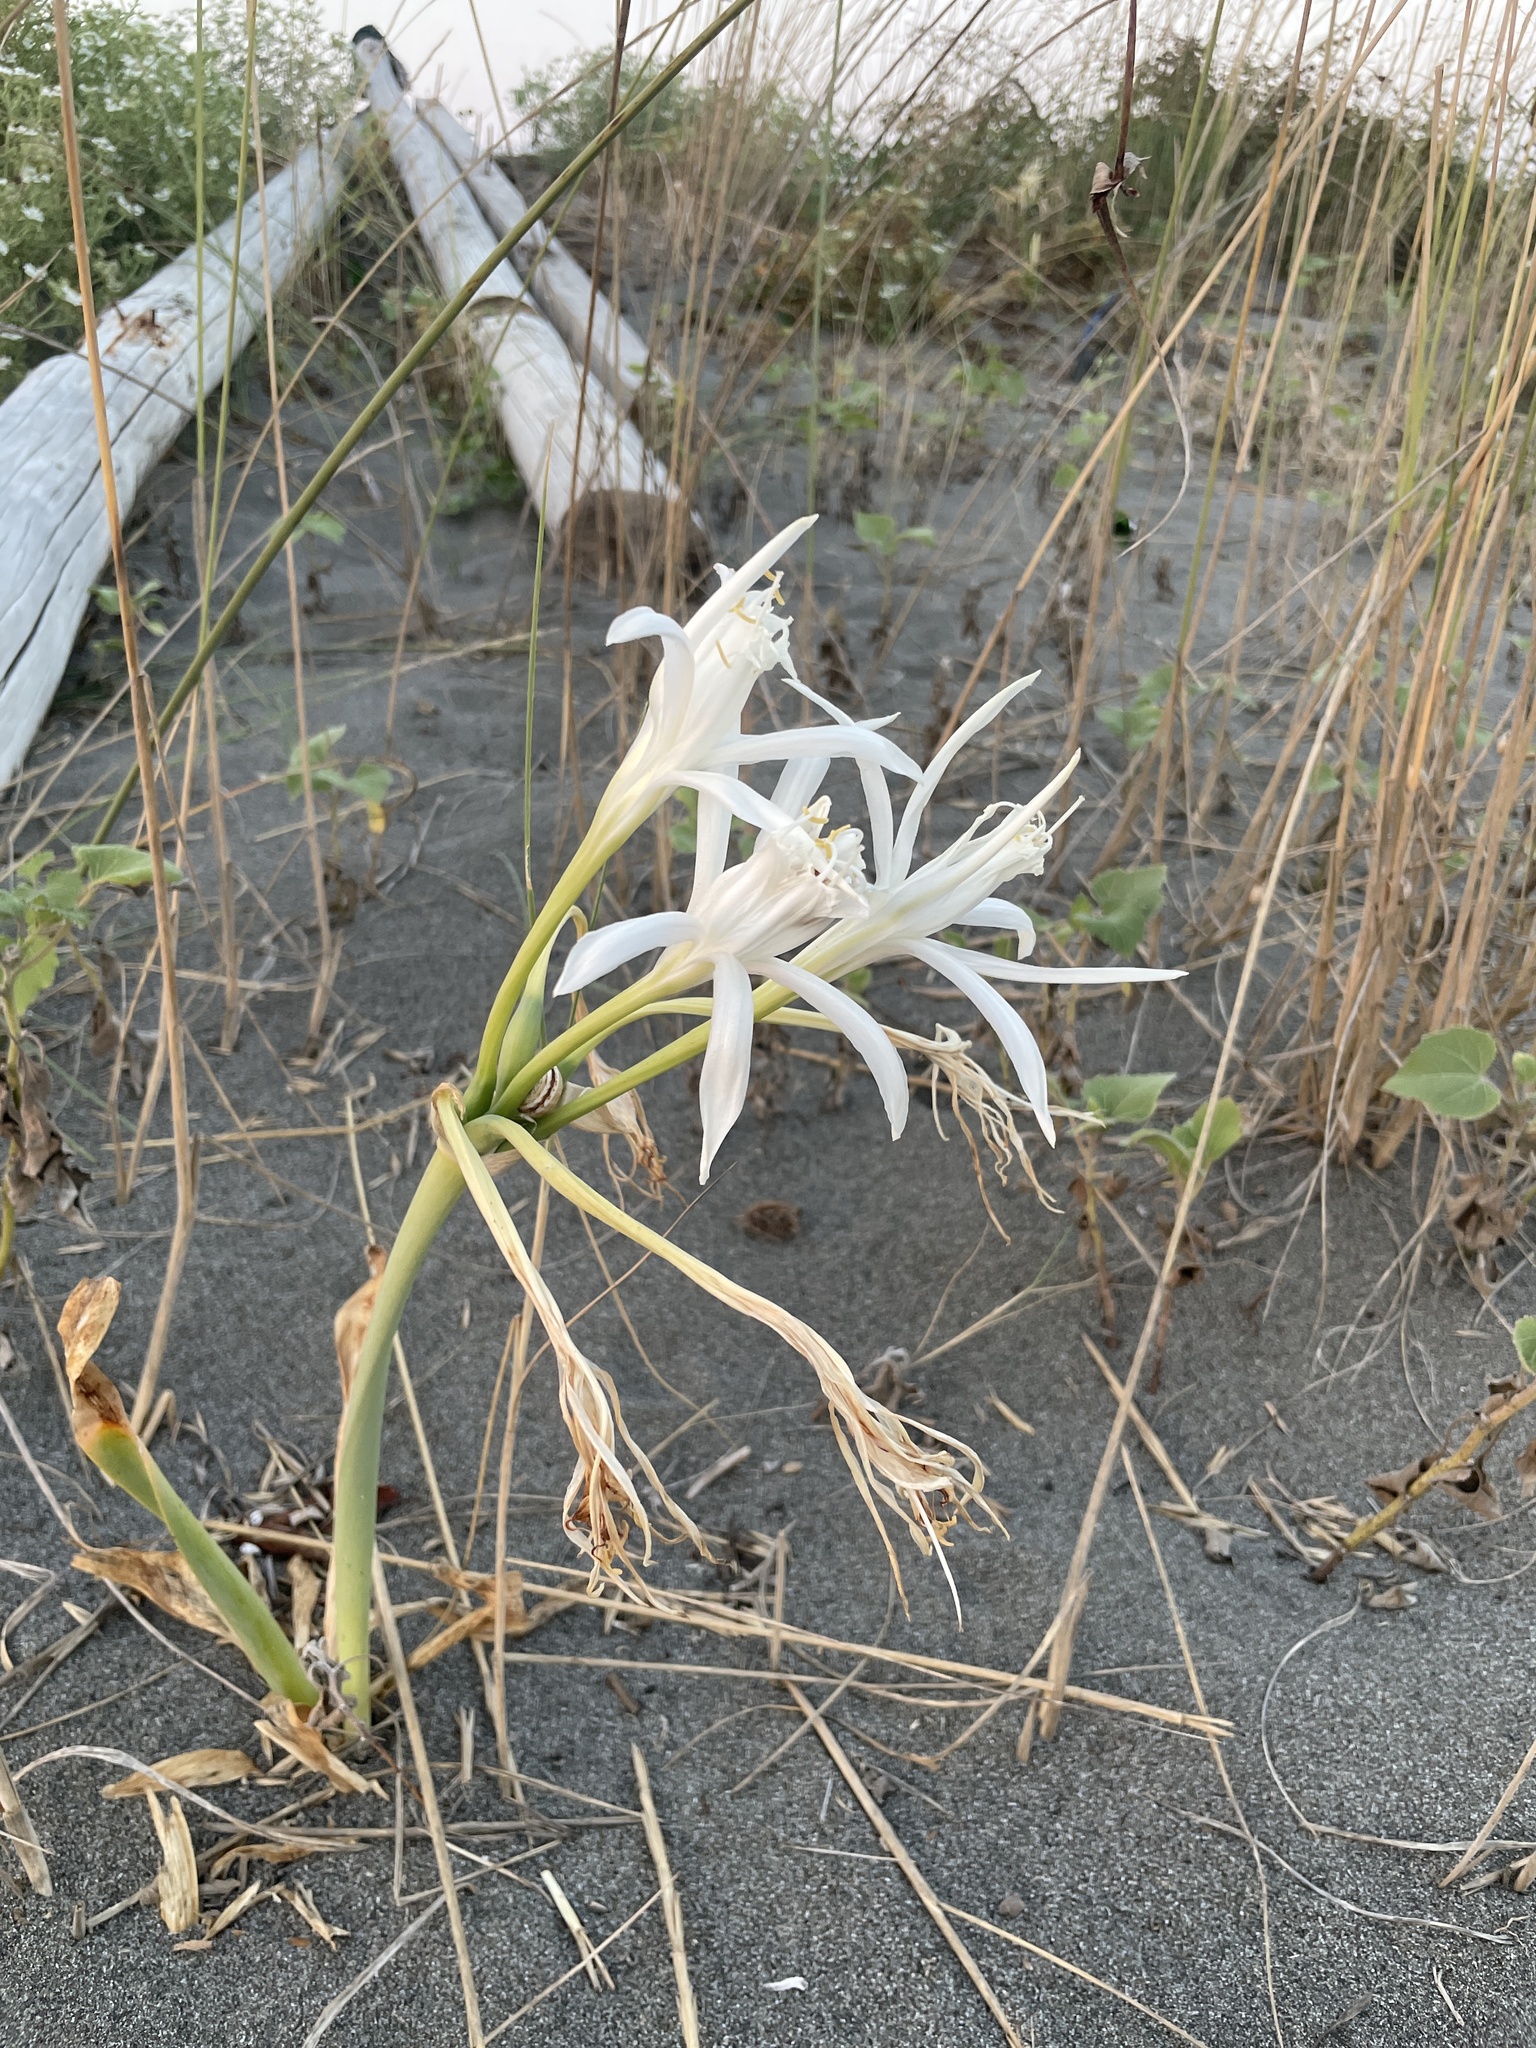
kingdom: Plantae
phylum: Tracheophyta
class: Liliopsida
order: Asparagales
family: Amaryllidaceae
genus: Pancratium
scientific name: Pancratium maritimum
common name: Sea-daffodil
